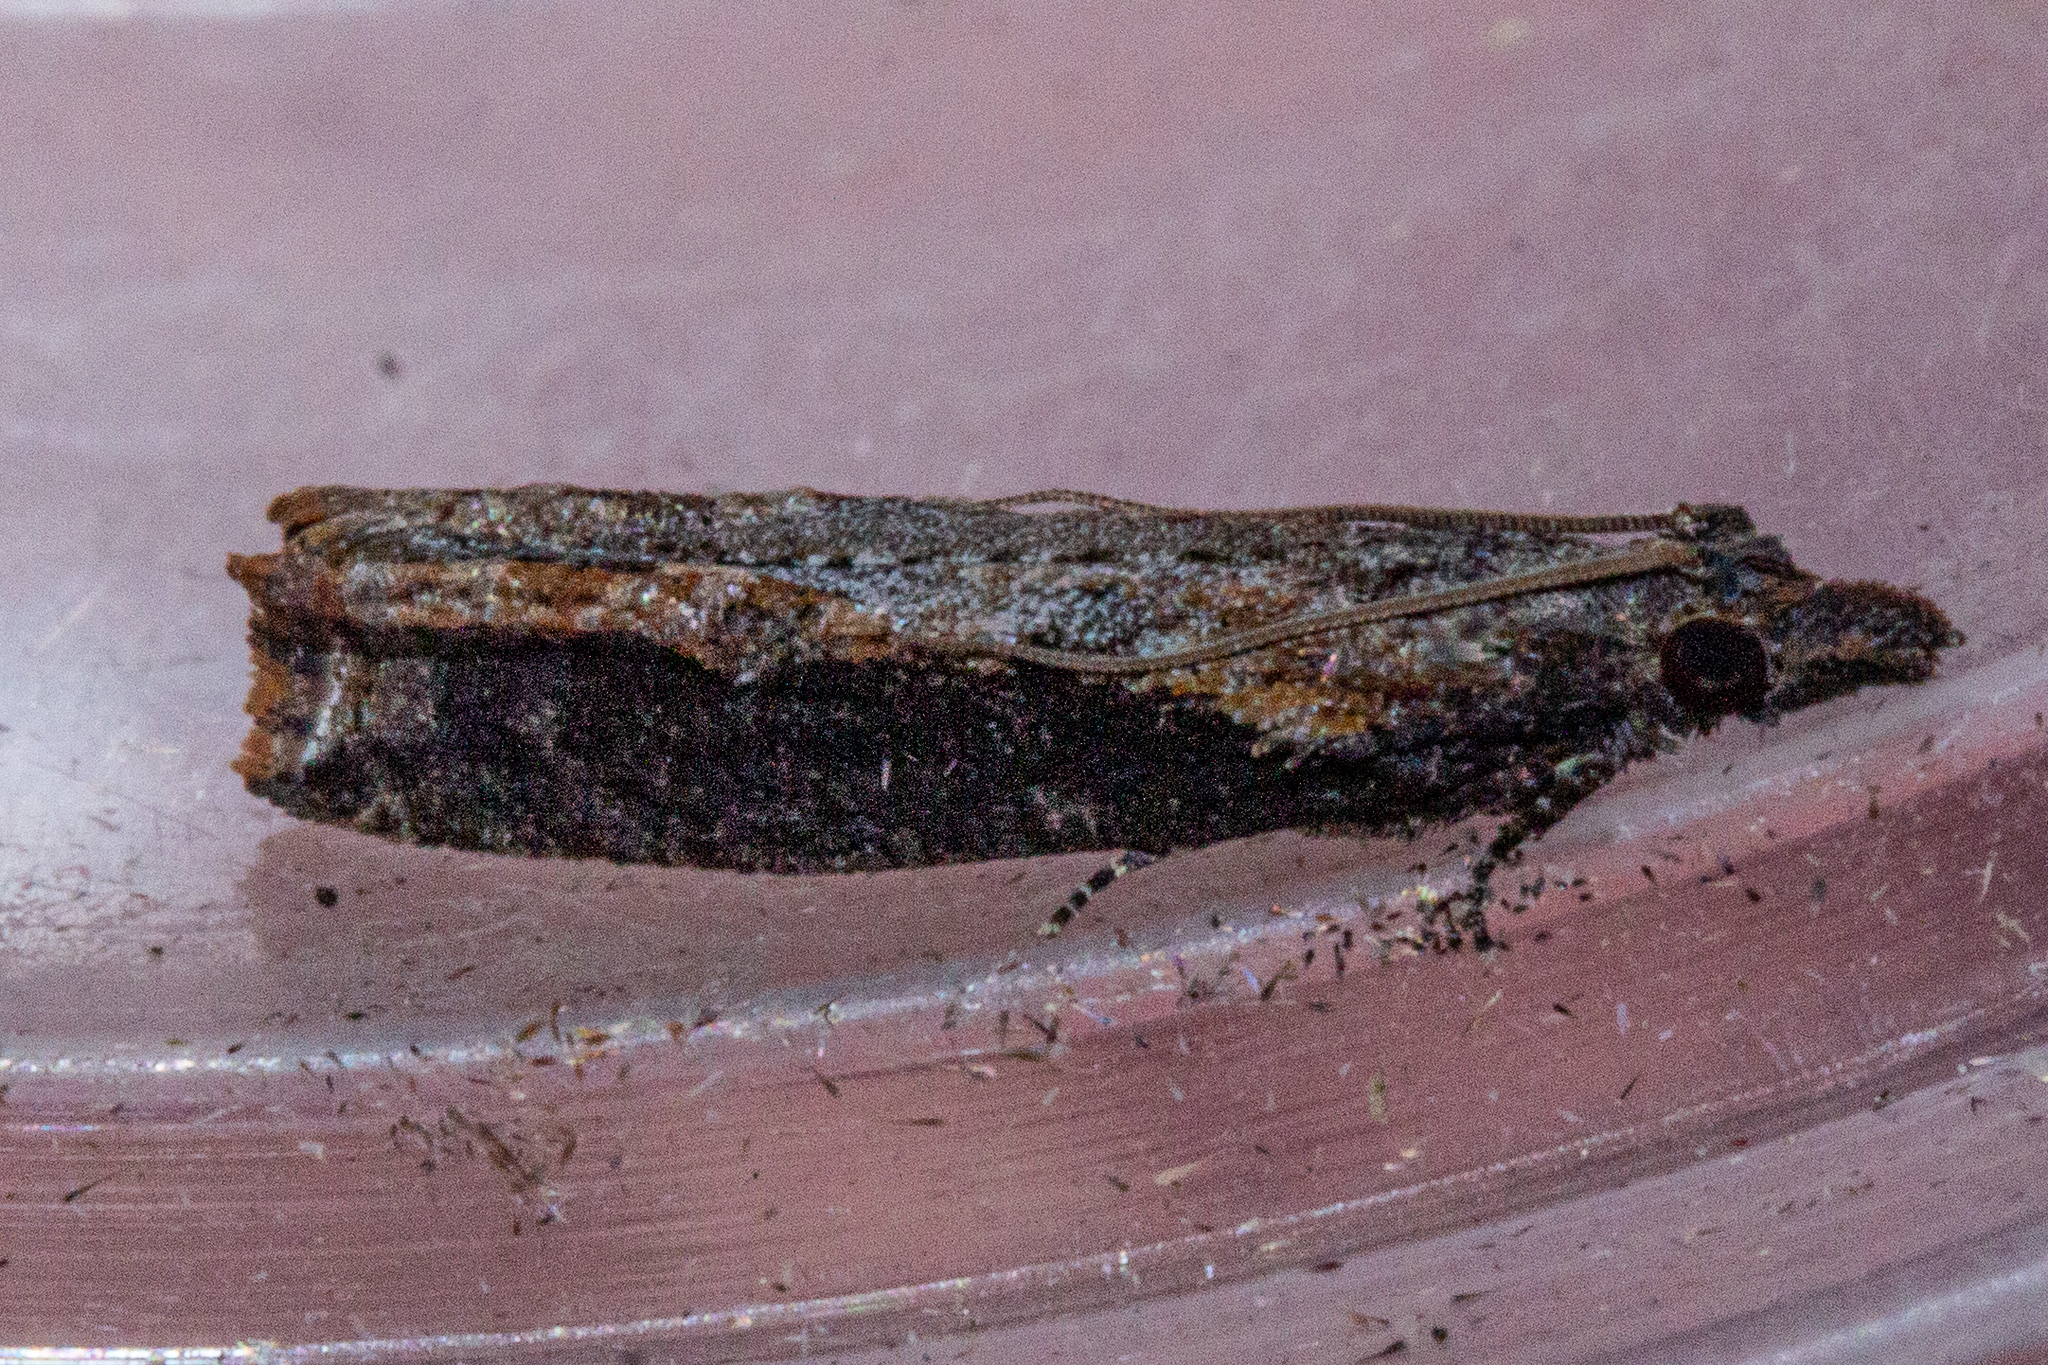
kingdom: Animalia
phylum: Arthropoda
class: Insecta
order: Lepidoptera
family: Tortricidae
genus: Strepsicrates
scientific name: Strepsicrates infensa
